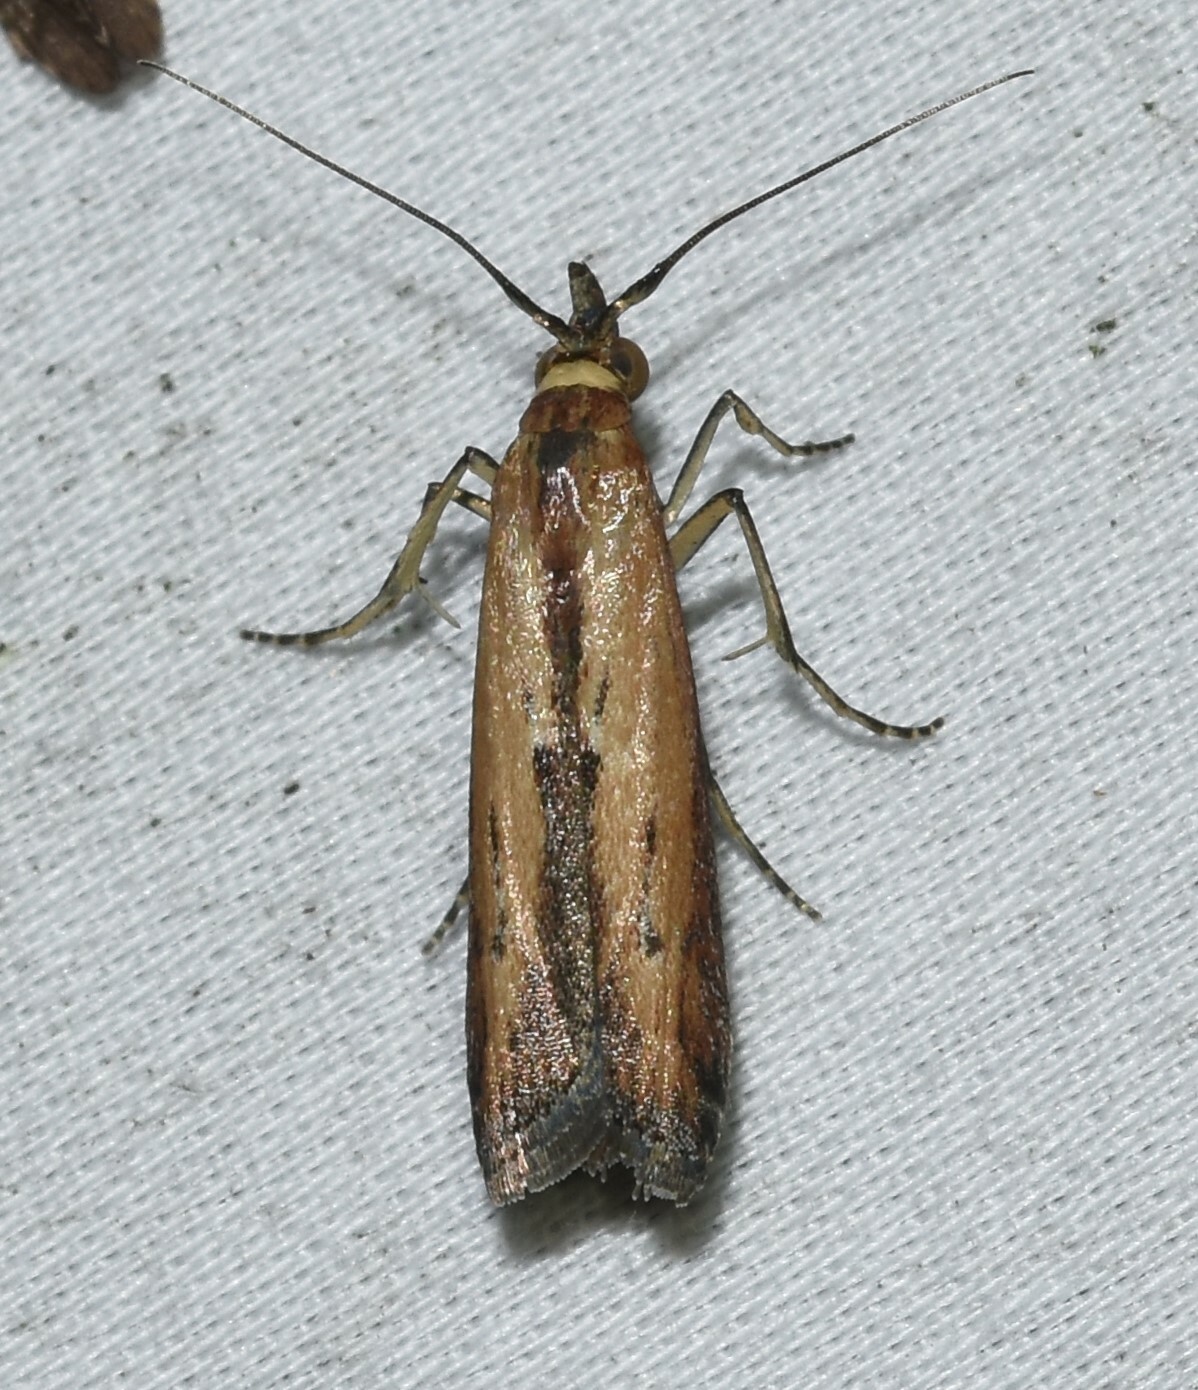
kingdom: Animalia
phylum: Arthropoda
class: Insecta
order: Lepidoptera
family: Pyralidae
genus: Elasmopalpus
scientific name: Elasmopalpus lignosella
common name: Lesser cornstalk borer
